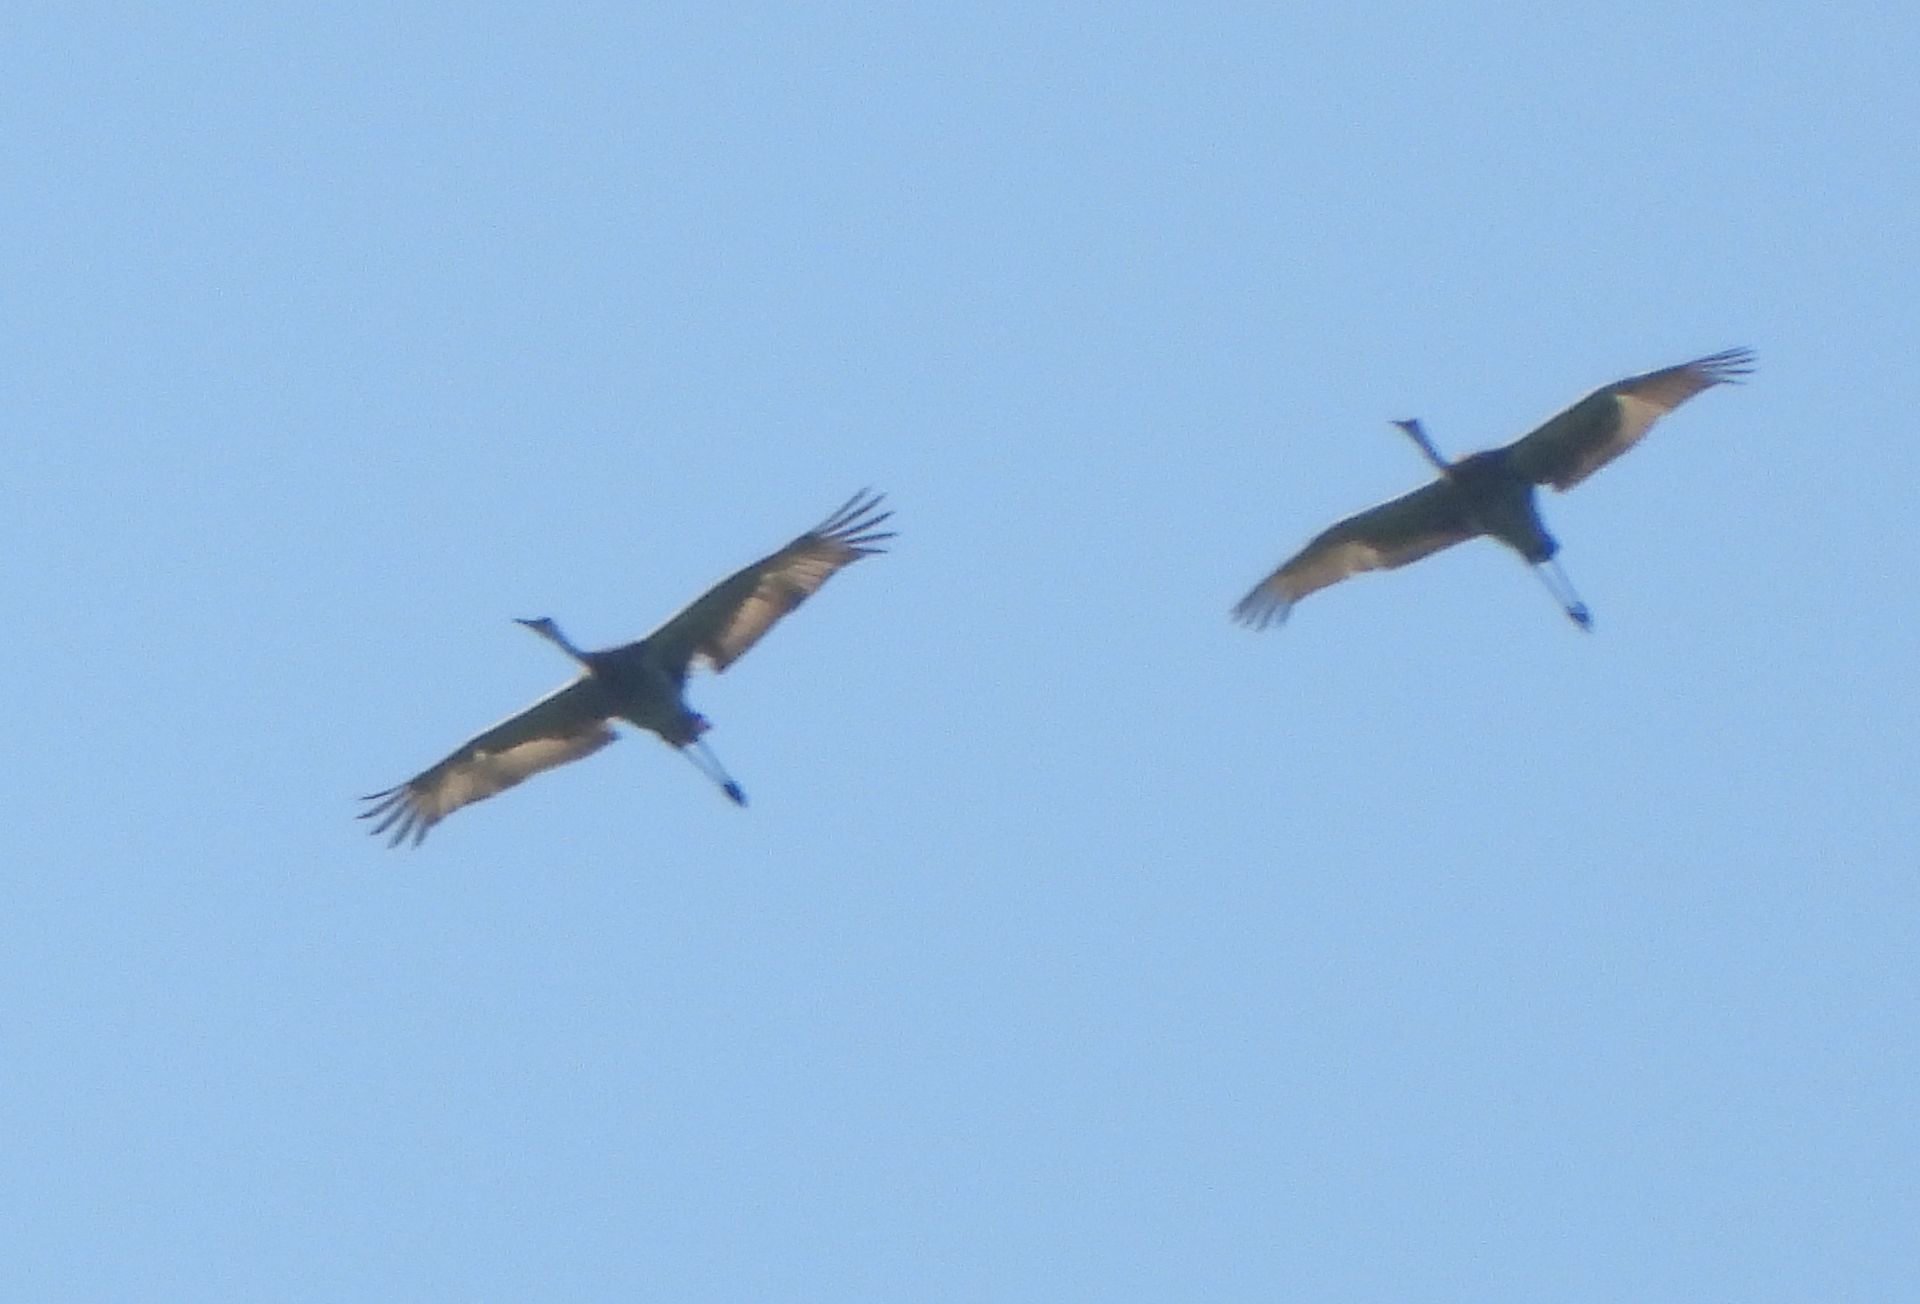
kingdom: Animalia
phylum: Chordata
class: Aves
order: Gruiformes
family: Gruidae
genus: Grus
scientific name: Grus canadensis
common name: Sandhill crane
